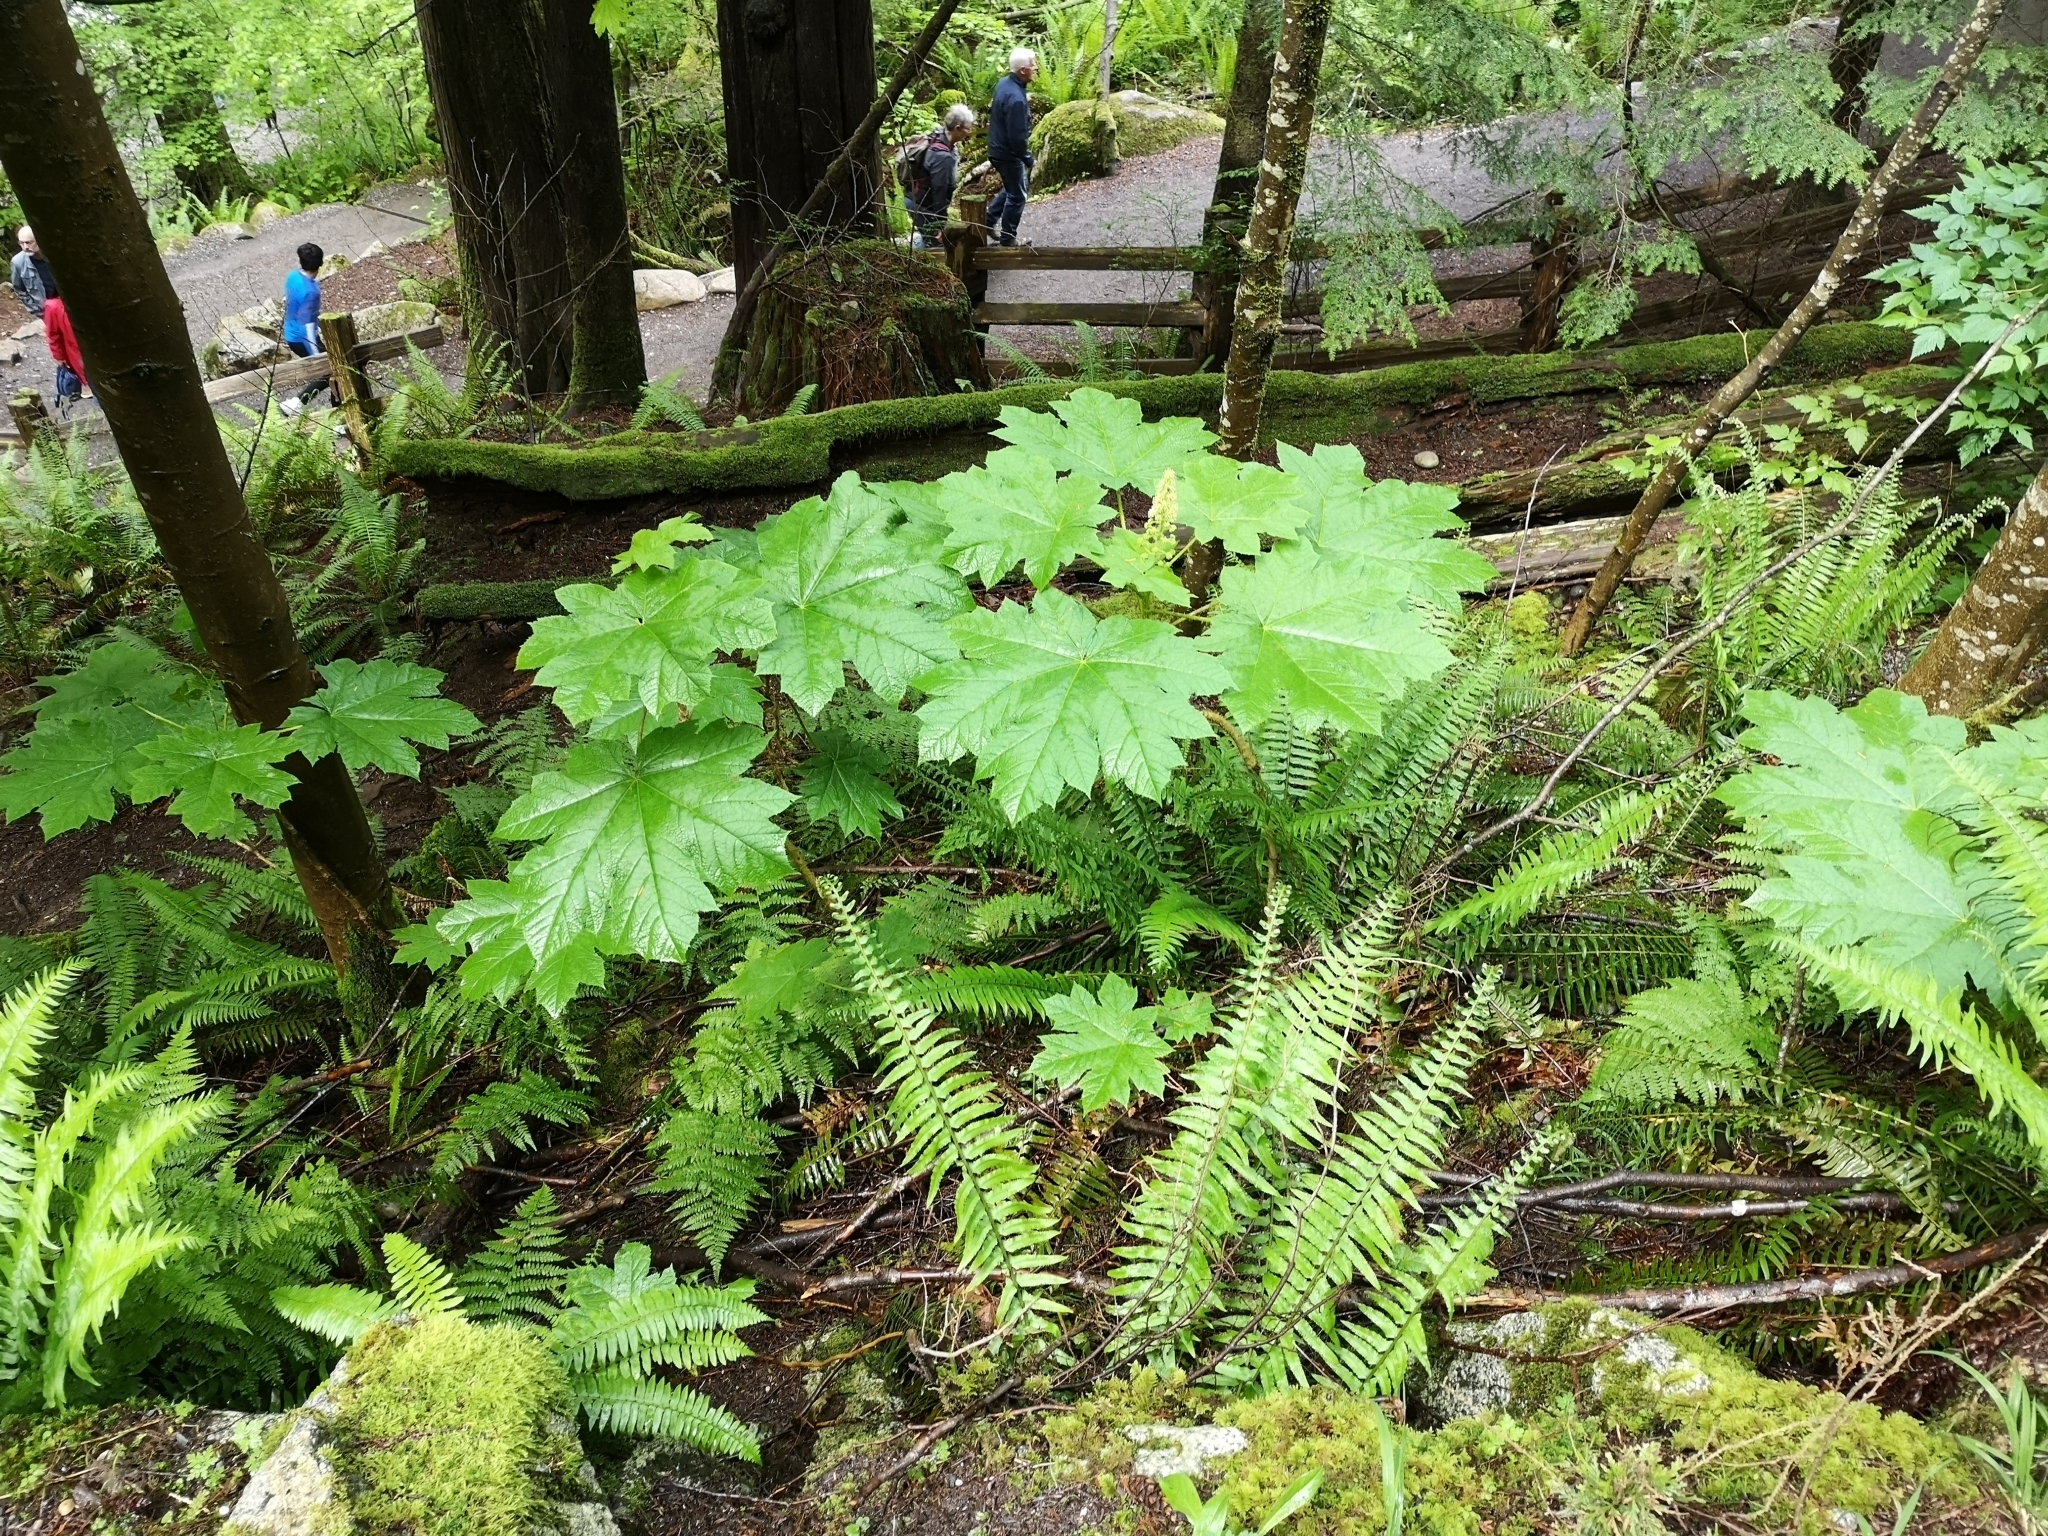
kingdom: Plantae
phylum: Tracheophyta
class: Magnoliopsida
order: Apiales
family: Araliaceae
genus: Oplopanax
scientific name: Oplopanax horridus
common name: Devil's walking-stick
